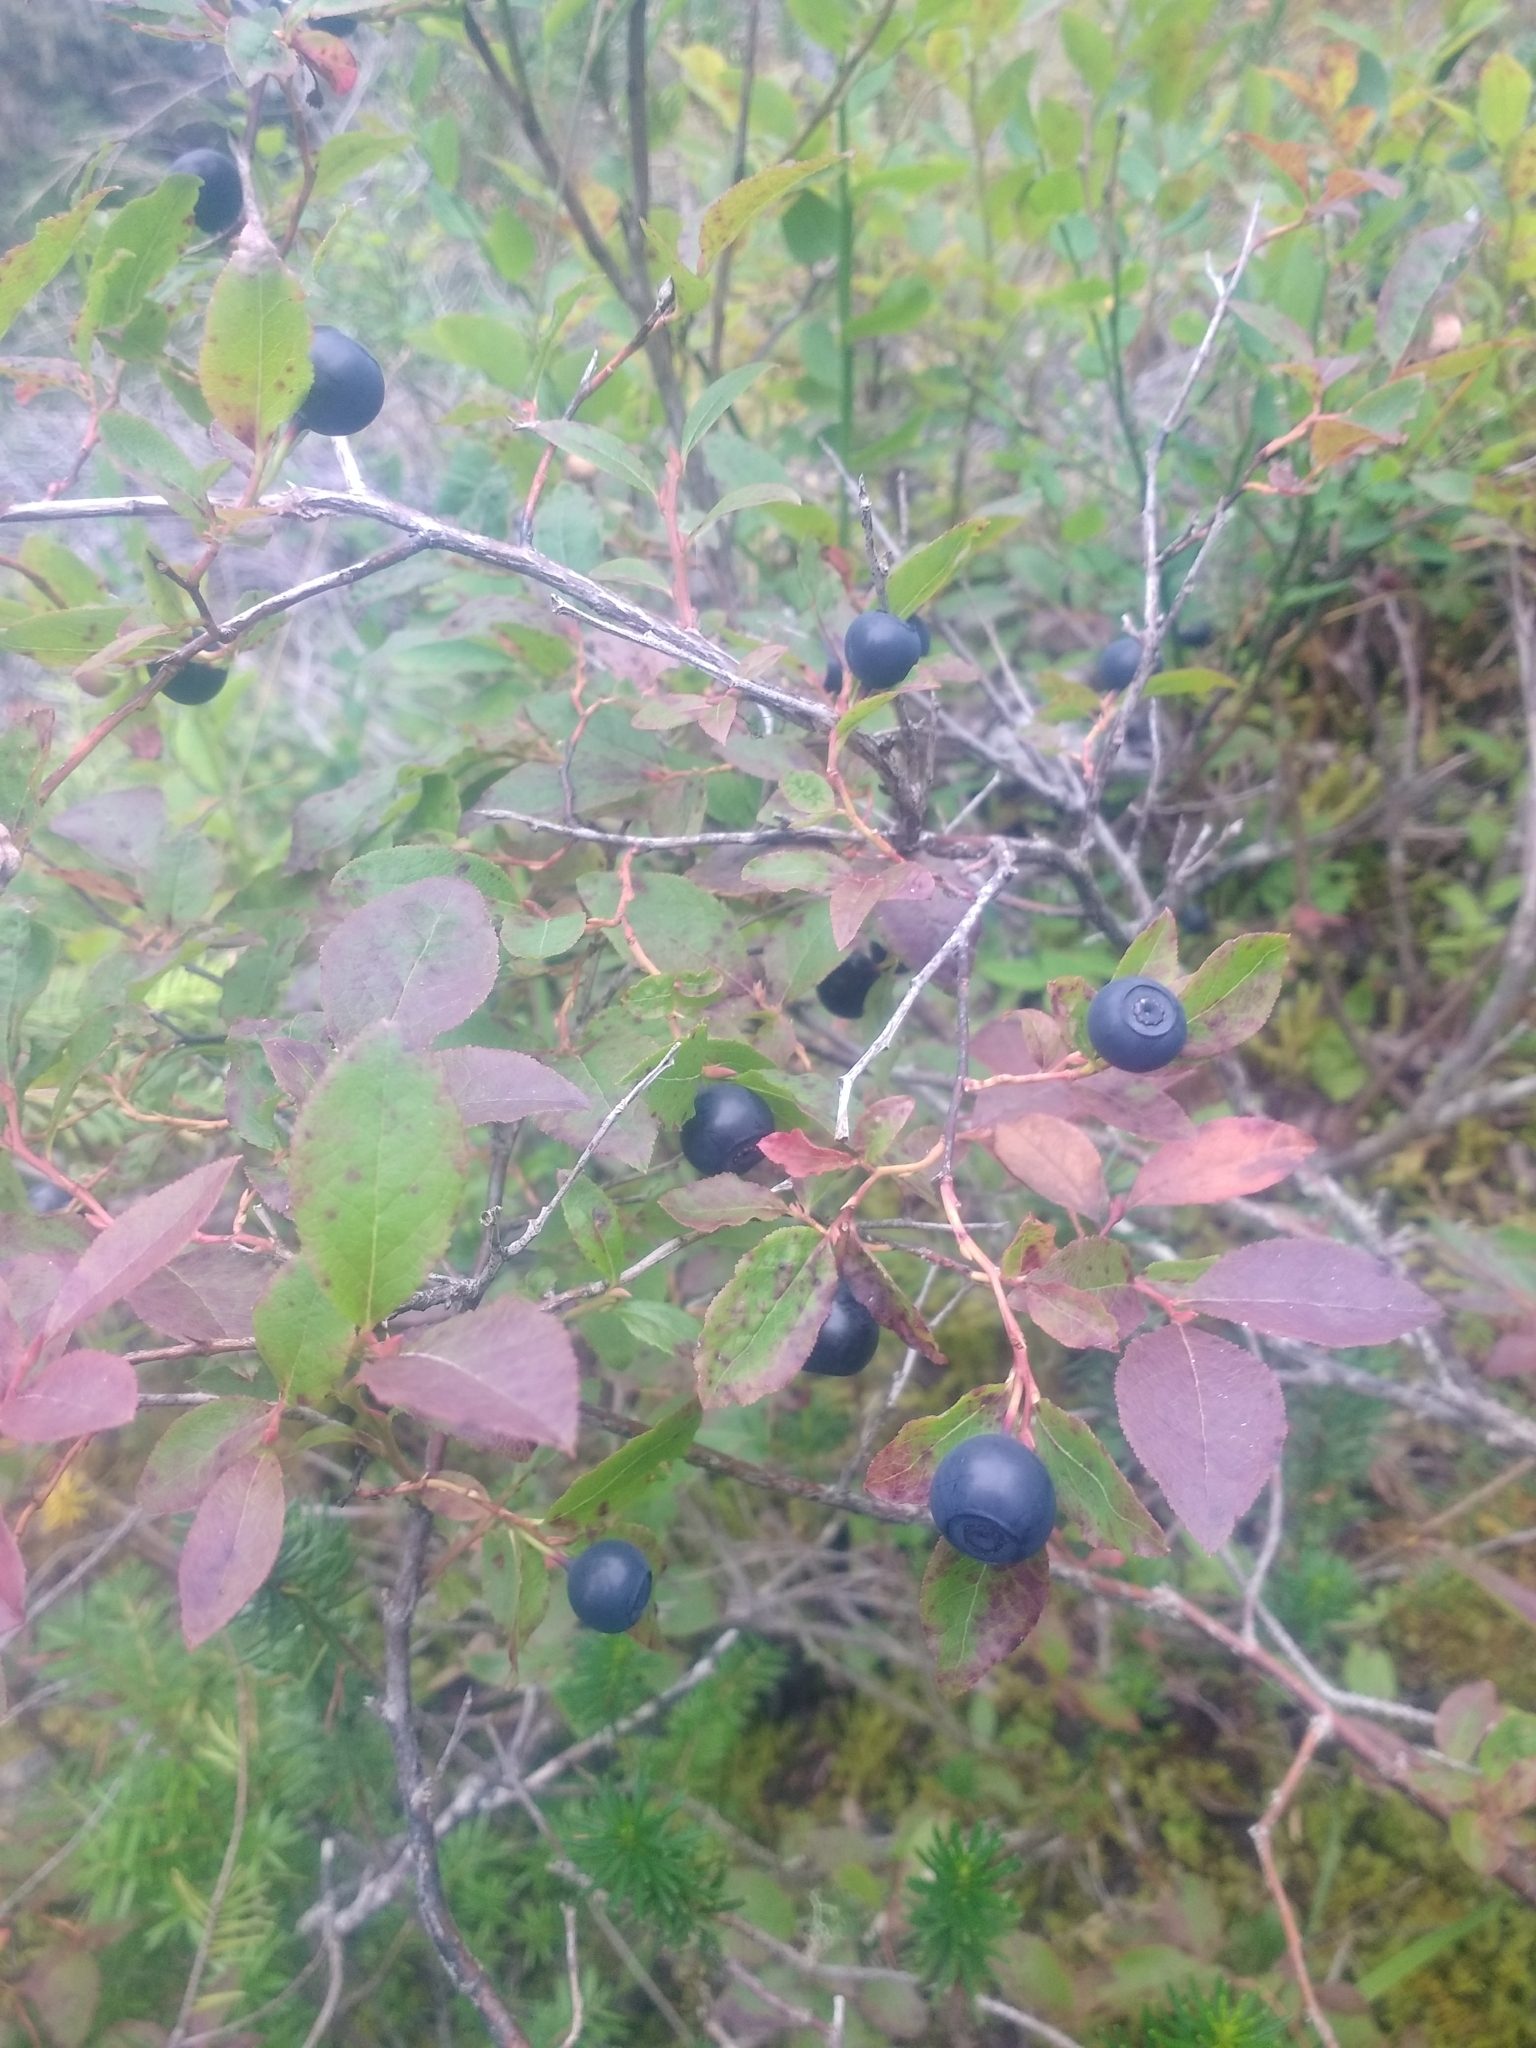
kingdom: Plantae
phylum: Tracheophyta
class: Magnoliopsida
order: Ericales
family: Ericaceae
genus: Vaccinium
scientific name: Vaccinium membranaceum
